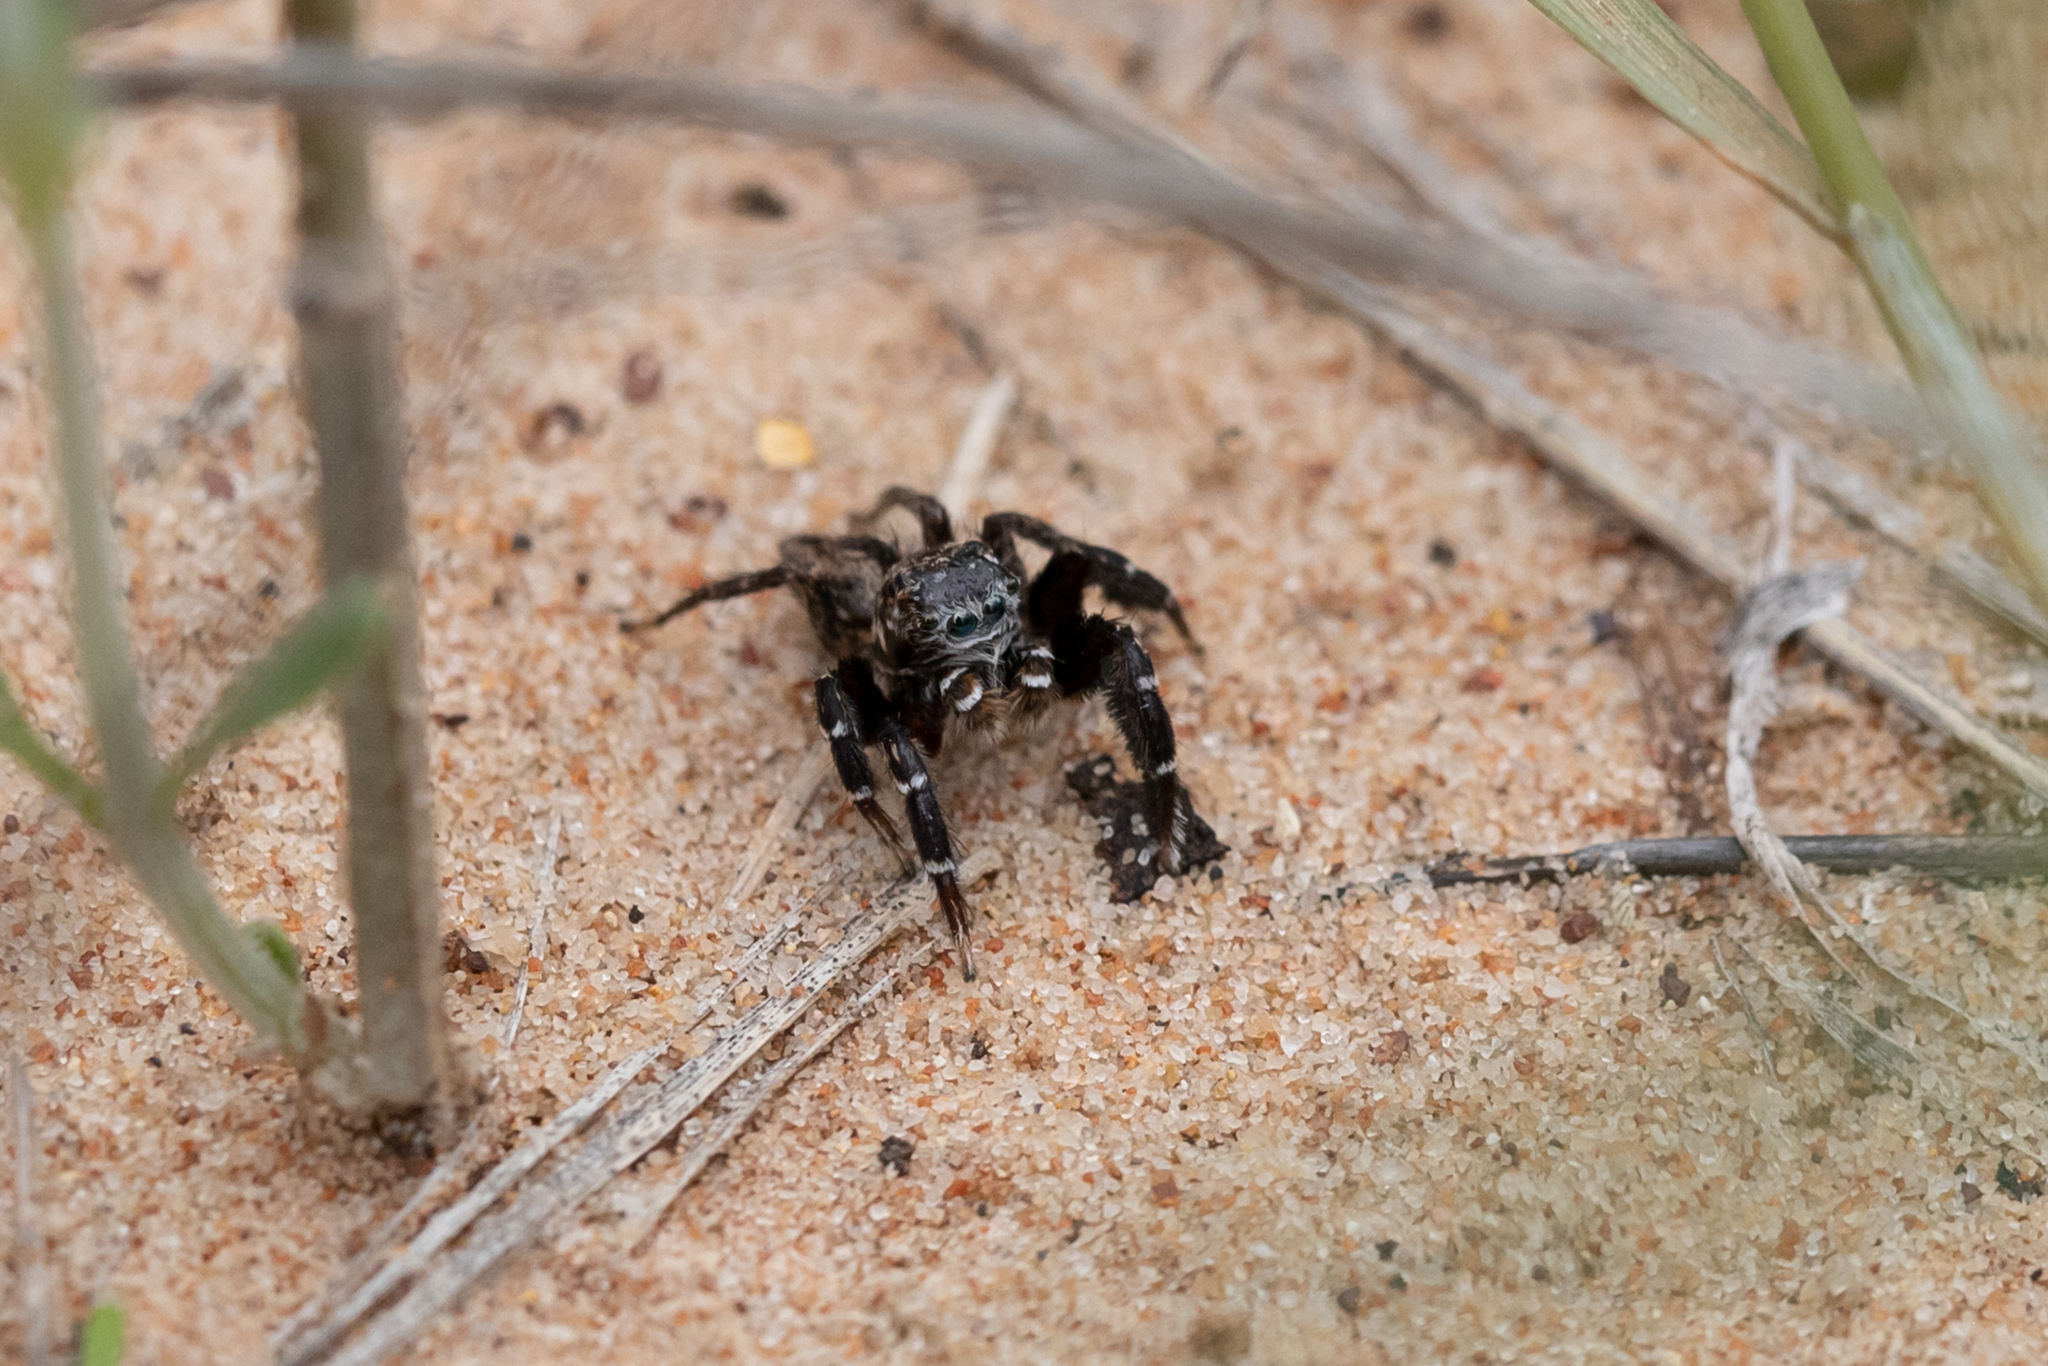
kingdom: Animalia
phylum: Arthropoda
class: Arachnida
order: Araneae
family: Salticidae
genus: Jotus
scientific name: Jotus karllagerfeldi
